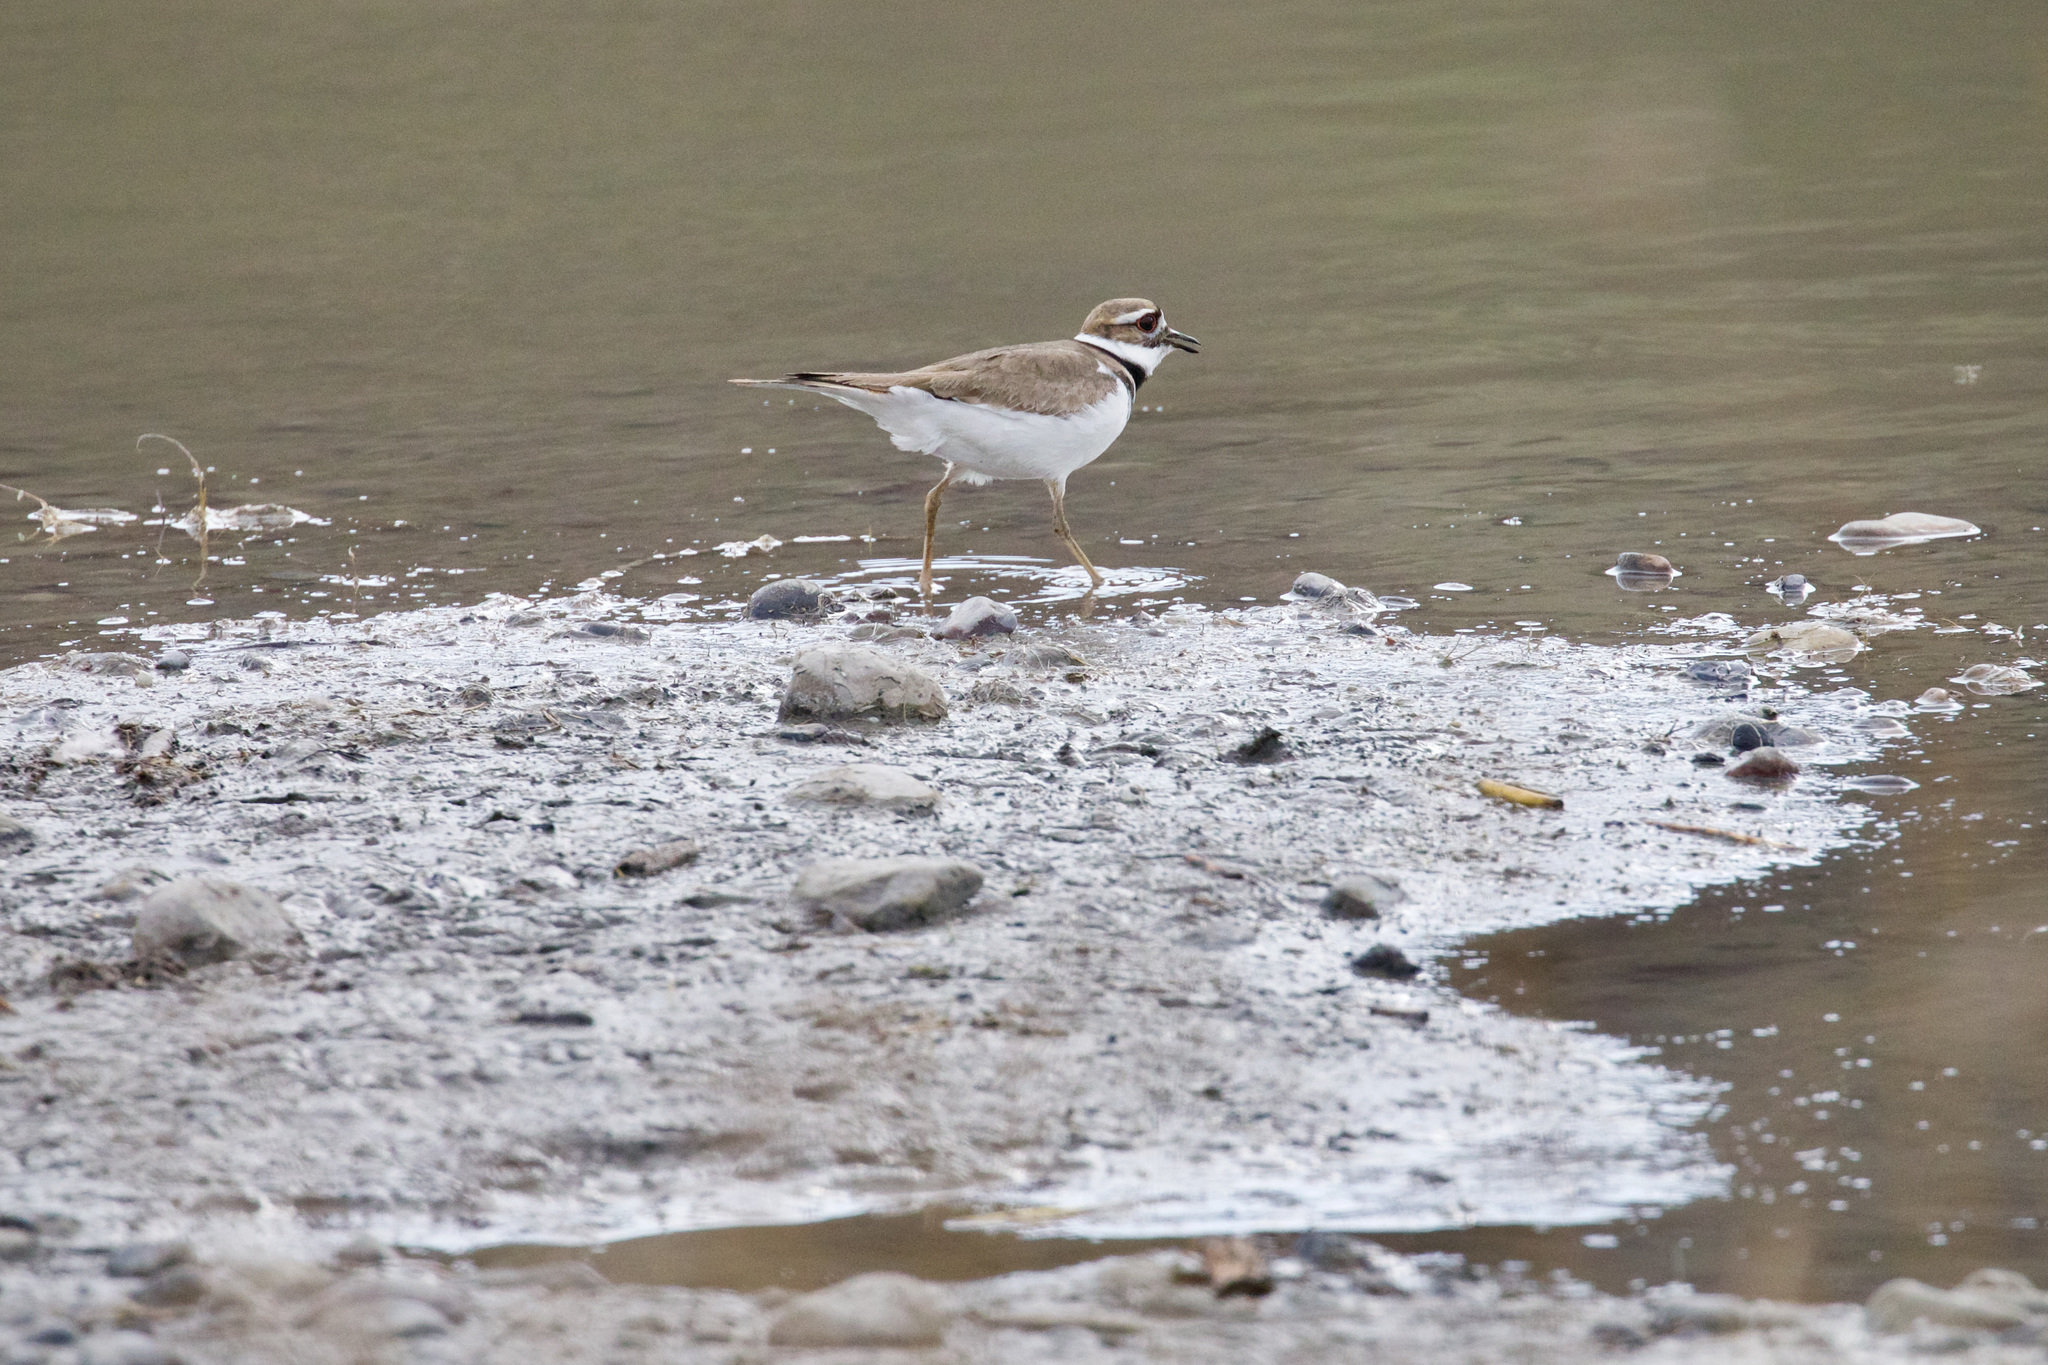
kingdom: Animalia
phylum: Chordata
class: Aves
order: Charadriiformes
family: Charadriidae
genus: Charadrius
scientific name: Charadrius vociferus
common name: Killdeer
